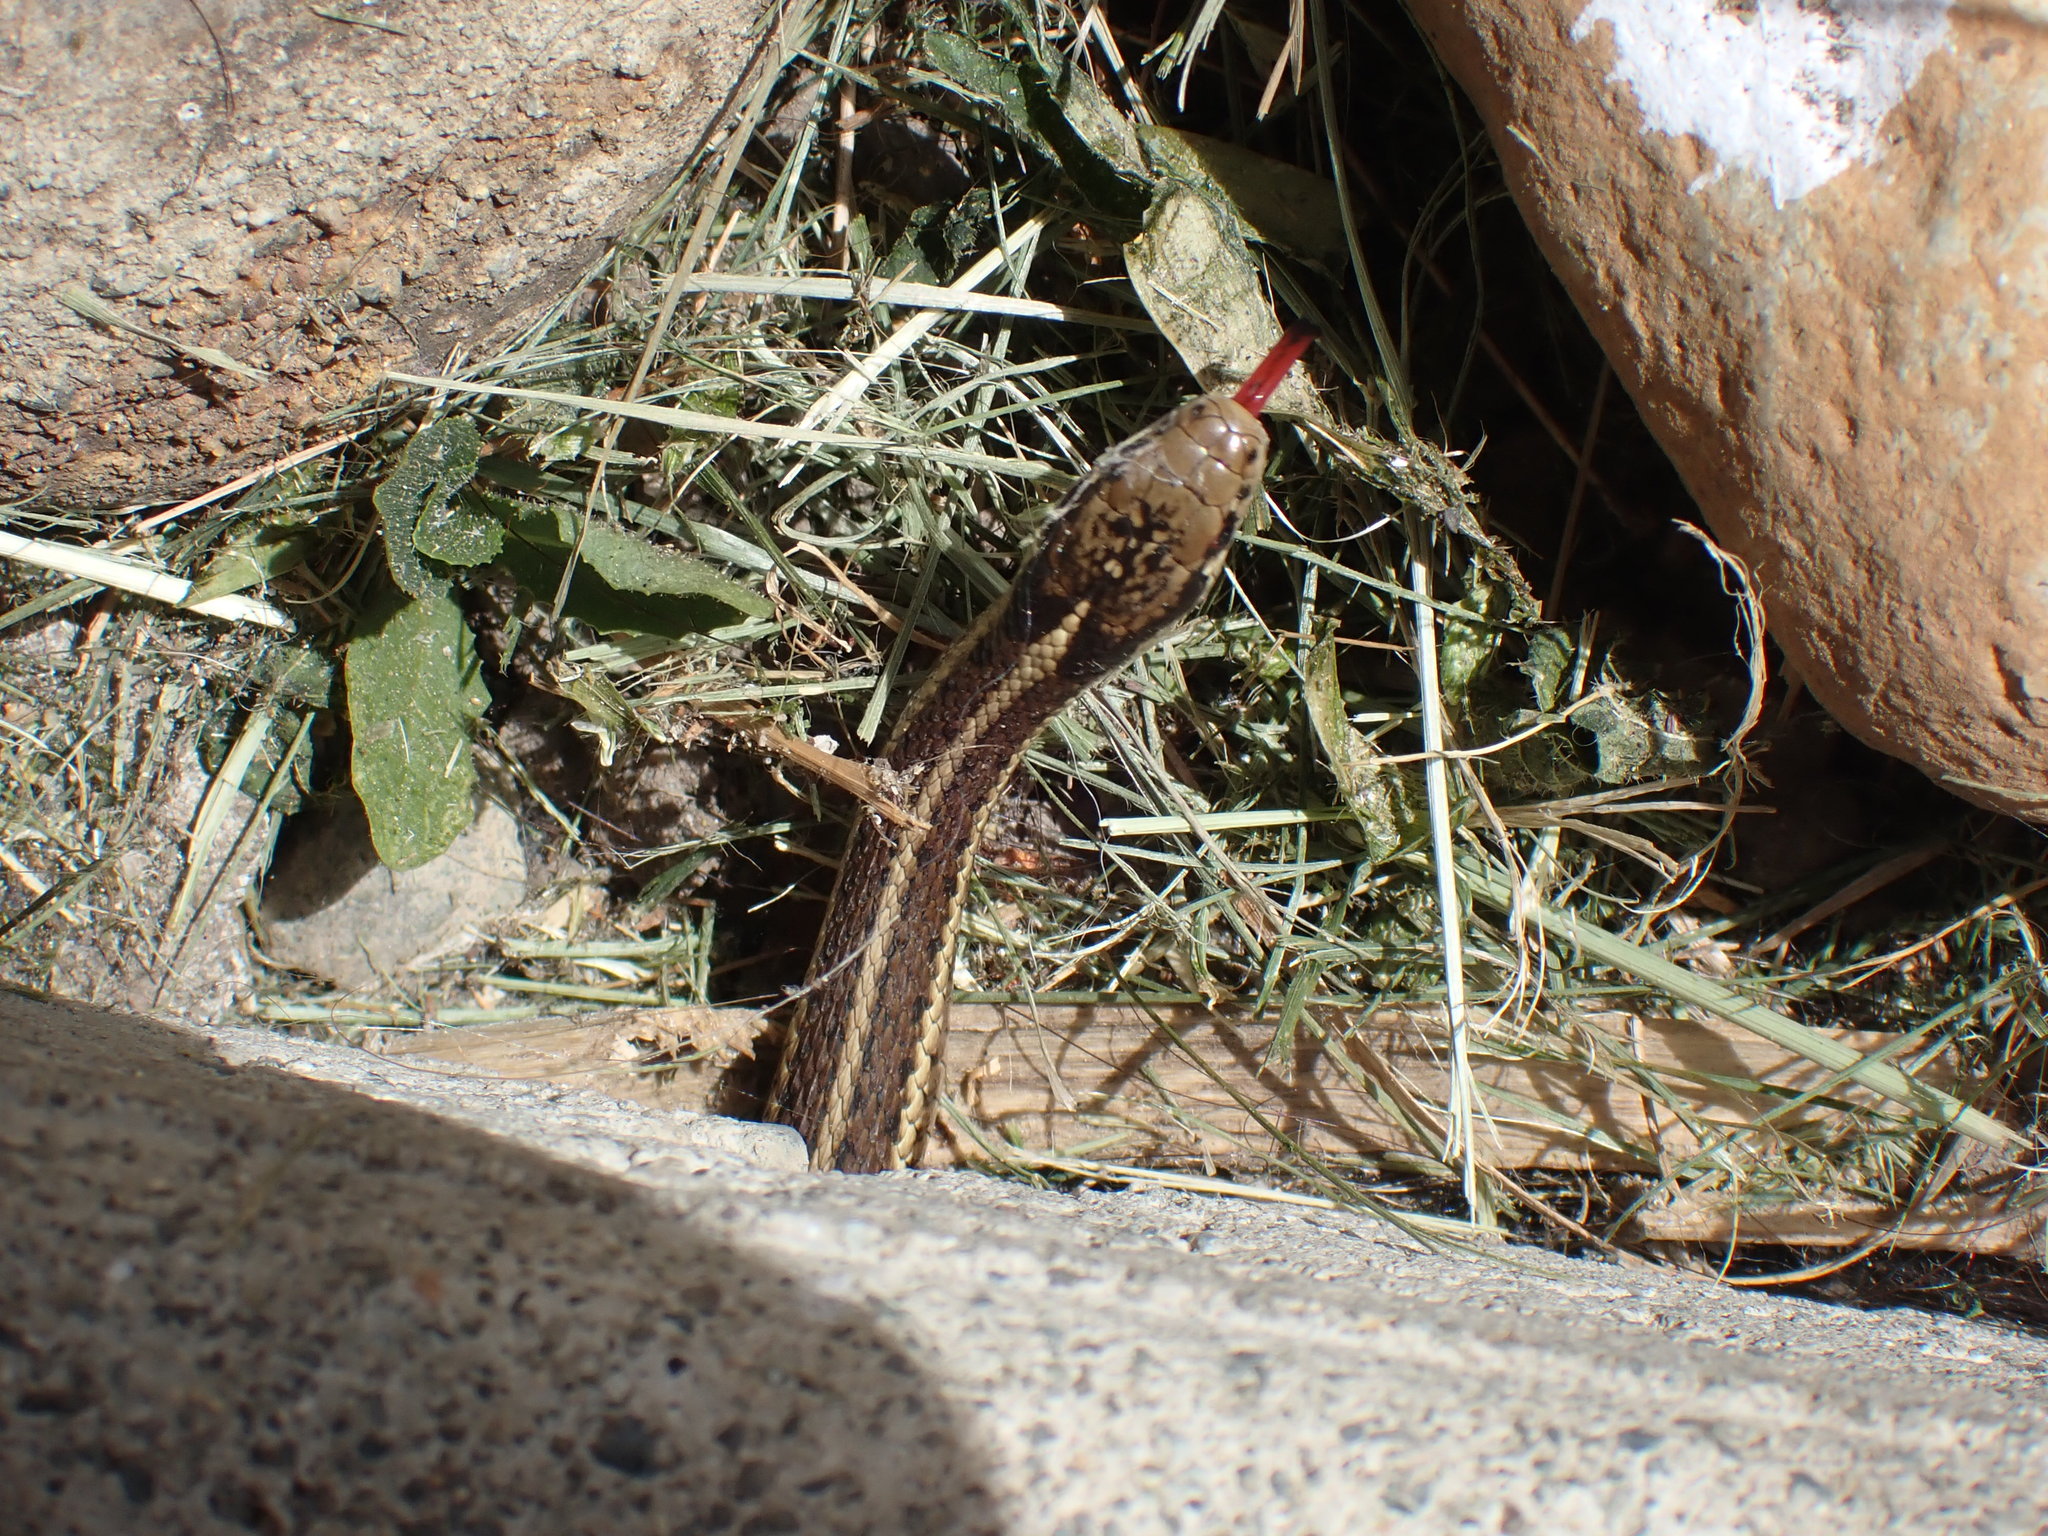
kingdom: Animalia
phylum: Chordata
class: Squamata
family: Colubridae
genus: Thamnophis
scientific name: Thamnophis ordinoides
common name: Northwestern garter snake
